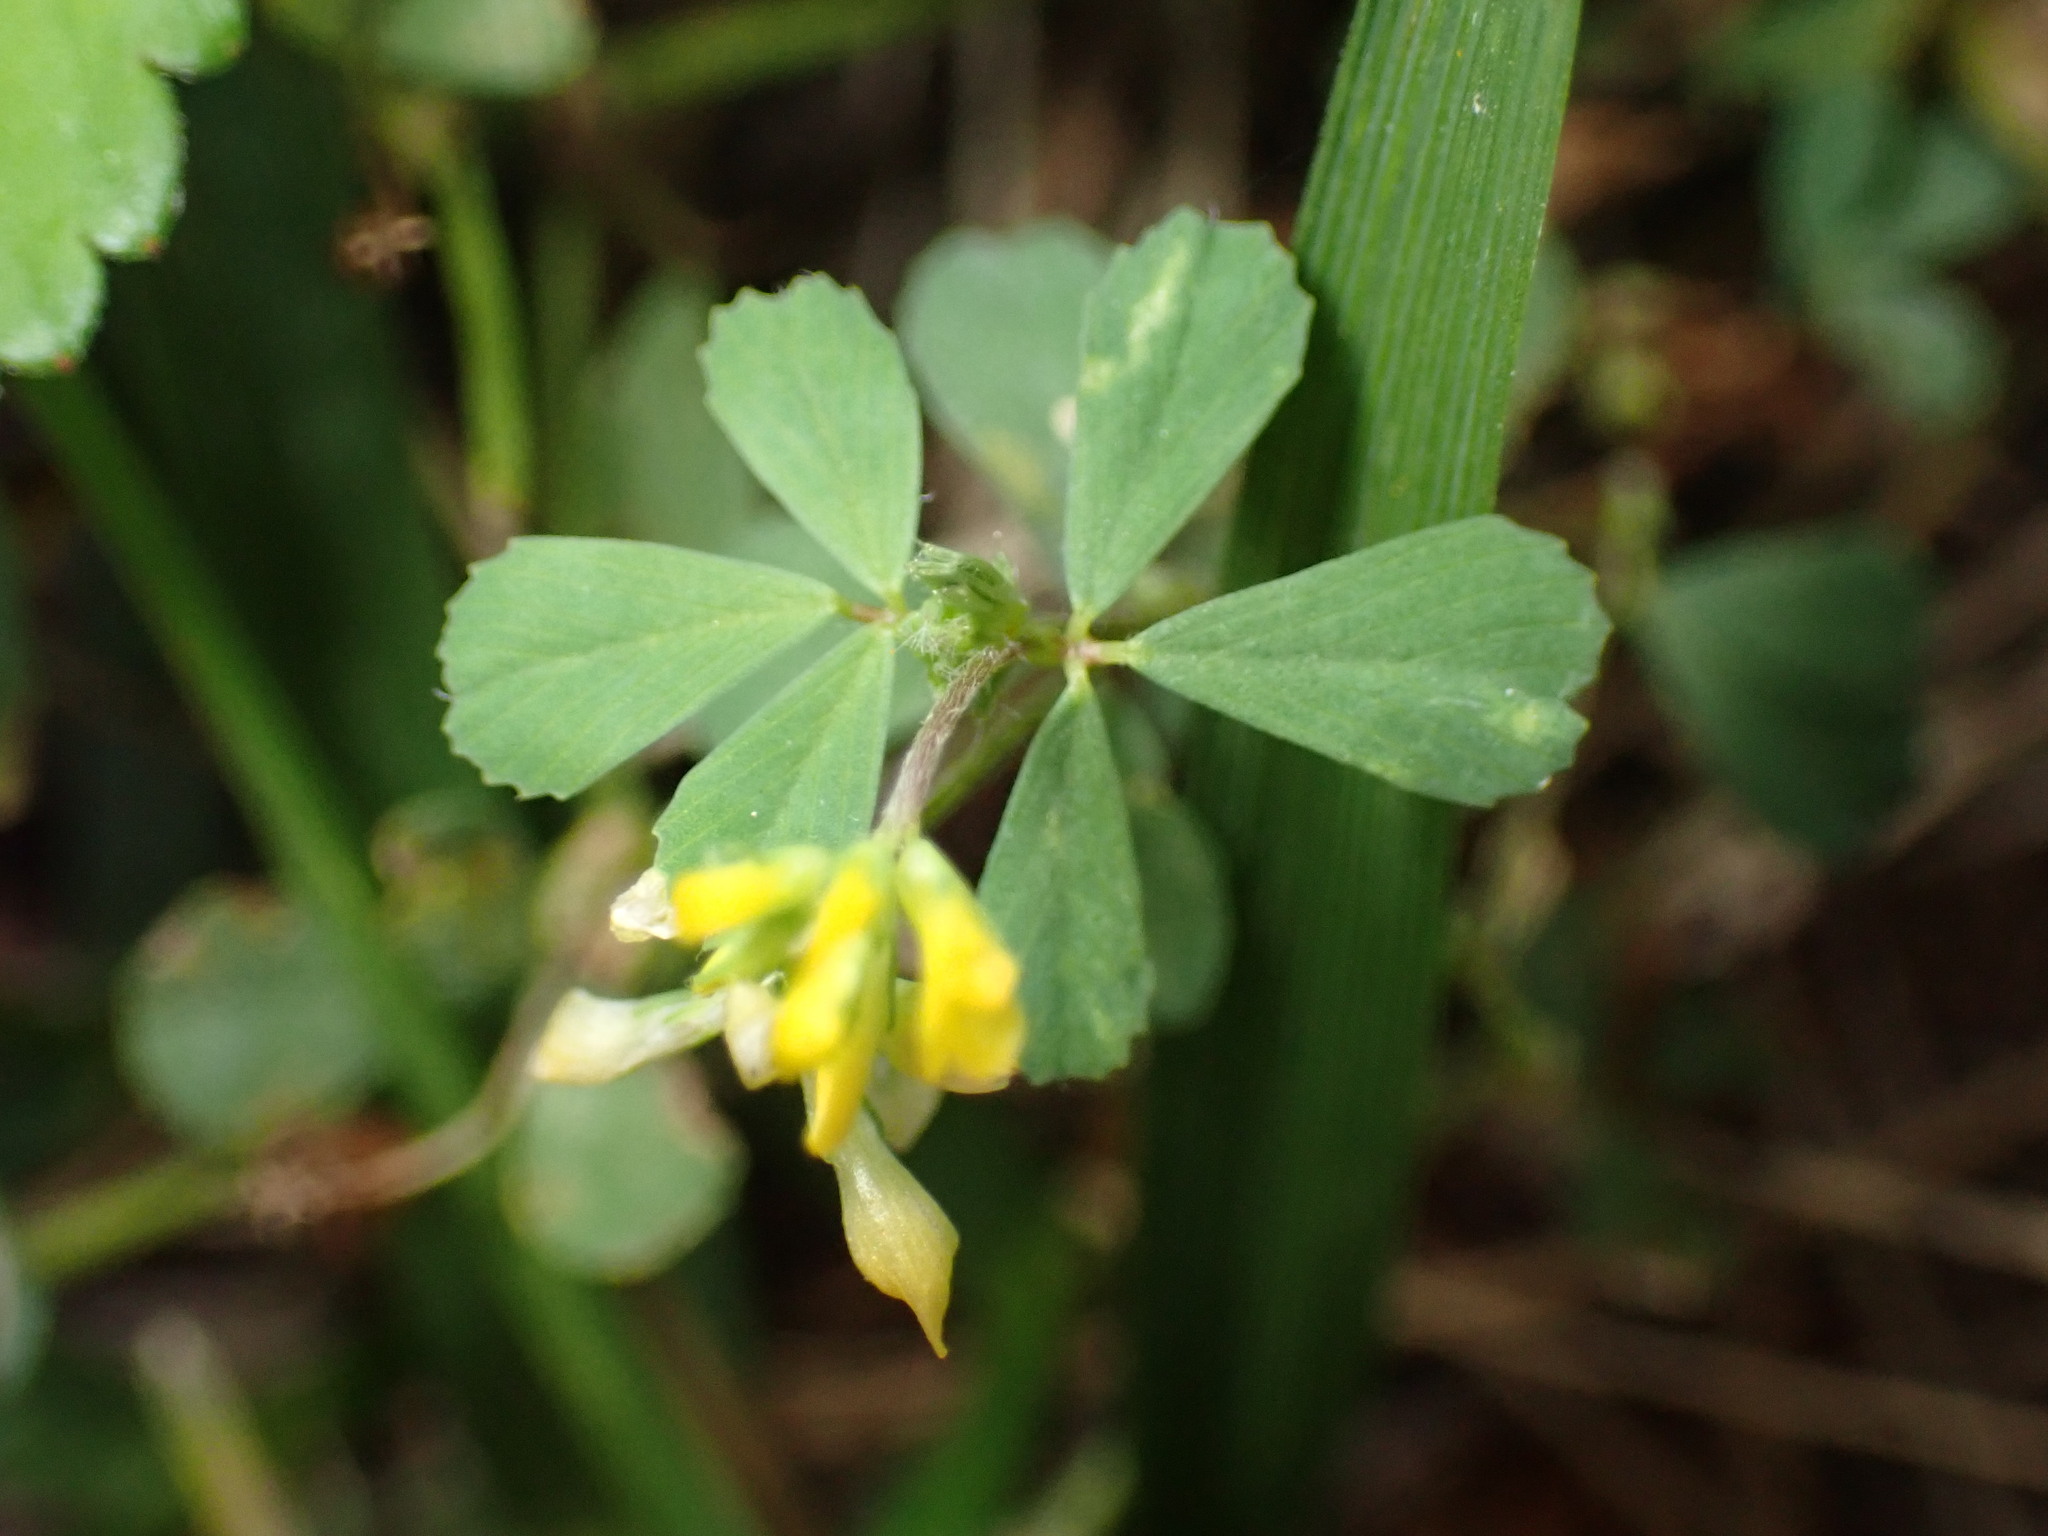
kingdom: Plantae
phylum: Tracheophyta
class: Magnoliopsida
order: Fabales
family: Fabaceae
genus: Trifolium
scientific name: Trifolium dubium
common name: Suckling clover
